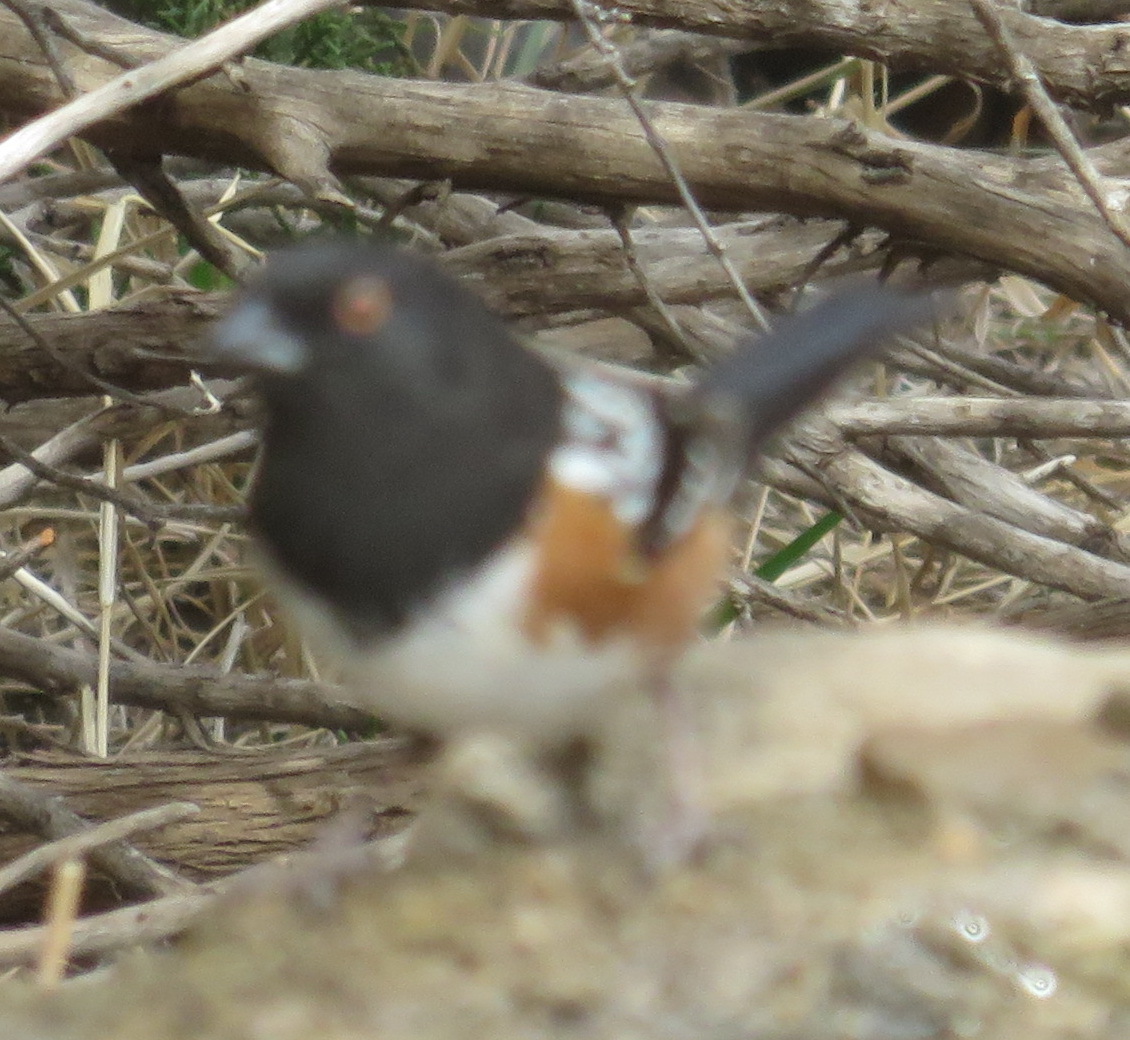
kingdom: Animalia
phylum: Chordata
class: Aves
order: Passeriformes
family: Passerellidae
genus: Pipilo
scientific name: Pipilo maculatus
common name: Spotted towhee
